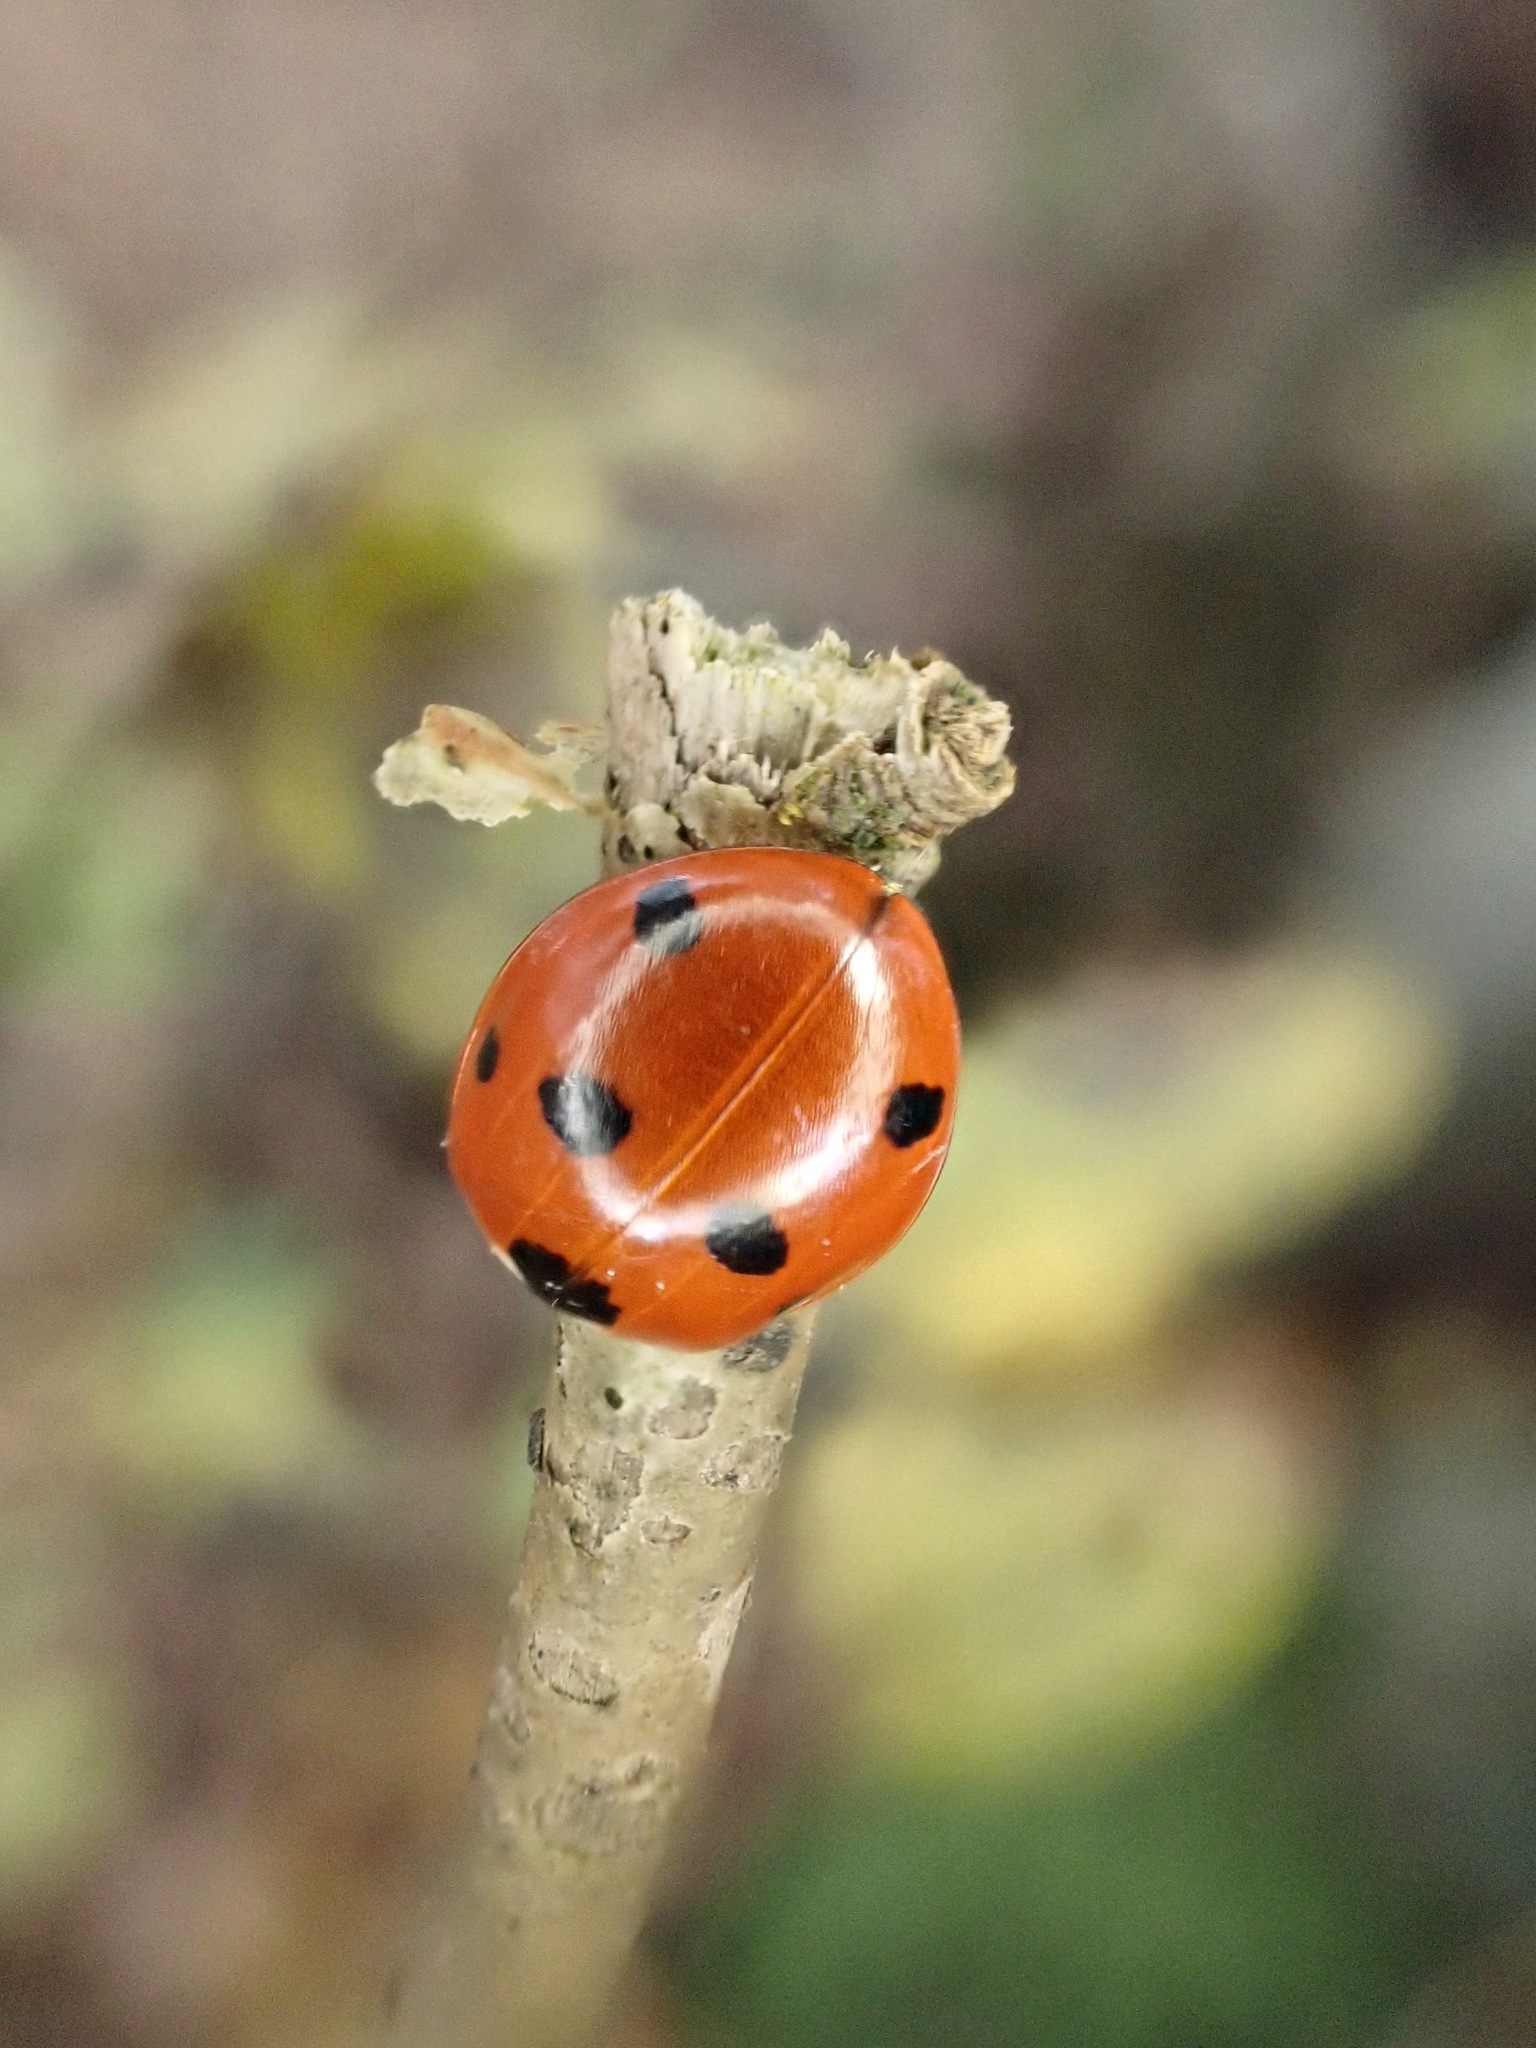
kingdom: Animalia
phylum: Arthropoda
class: Insecta
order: Coleoptera
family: Coccinellidae
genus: Coccinella
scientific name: Coccinella septempunctata
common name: Sevenspotted lady beetle
